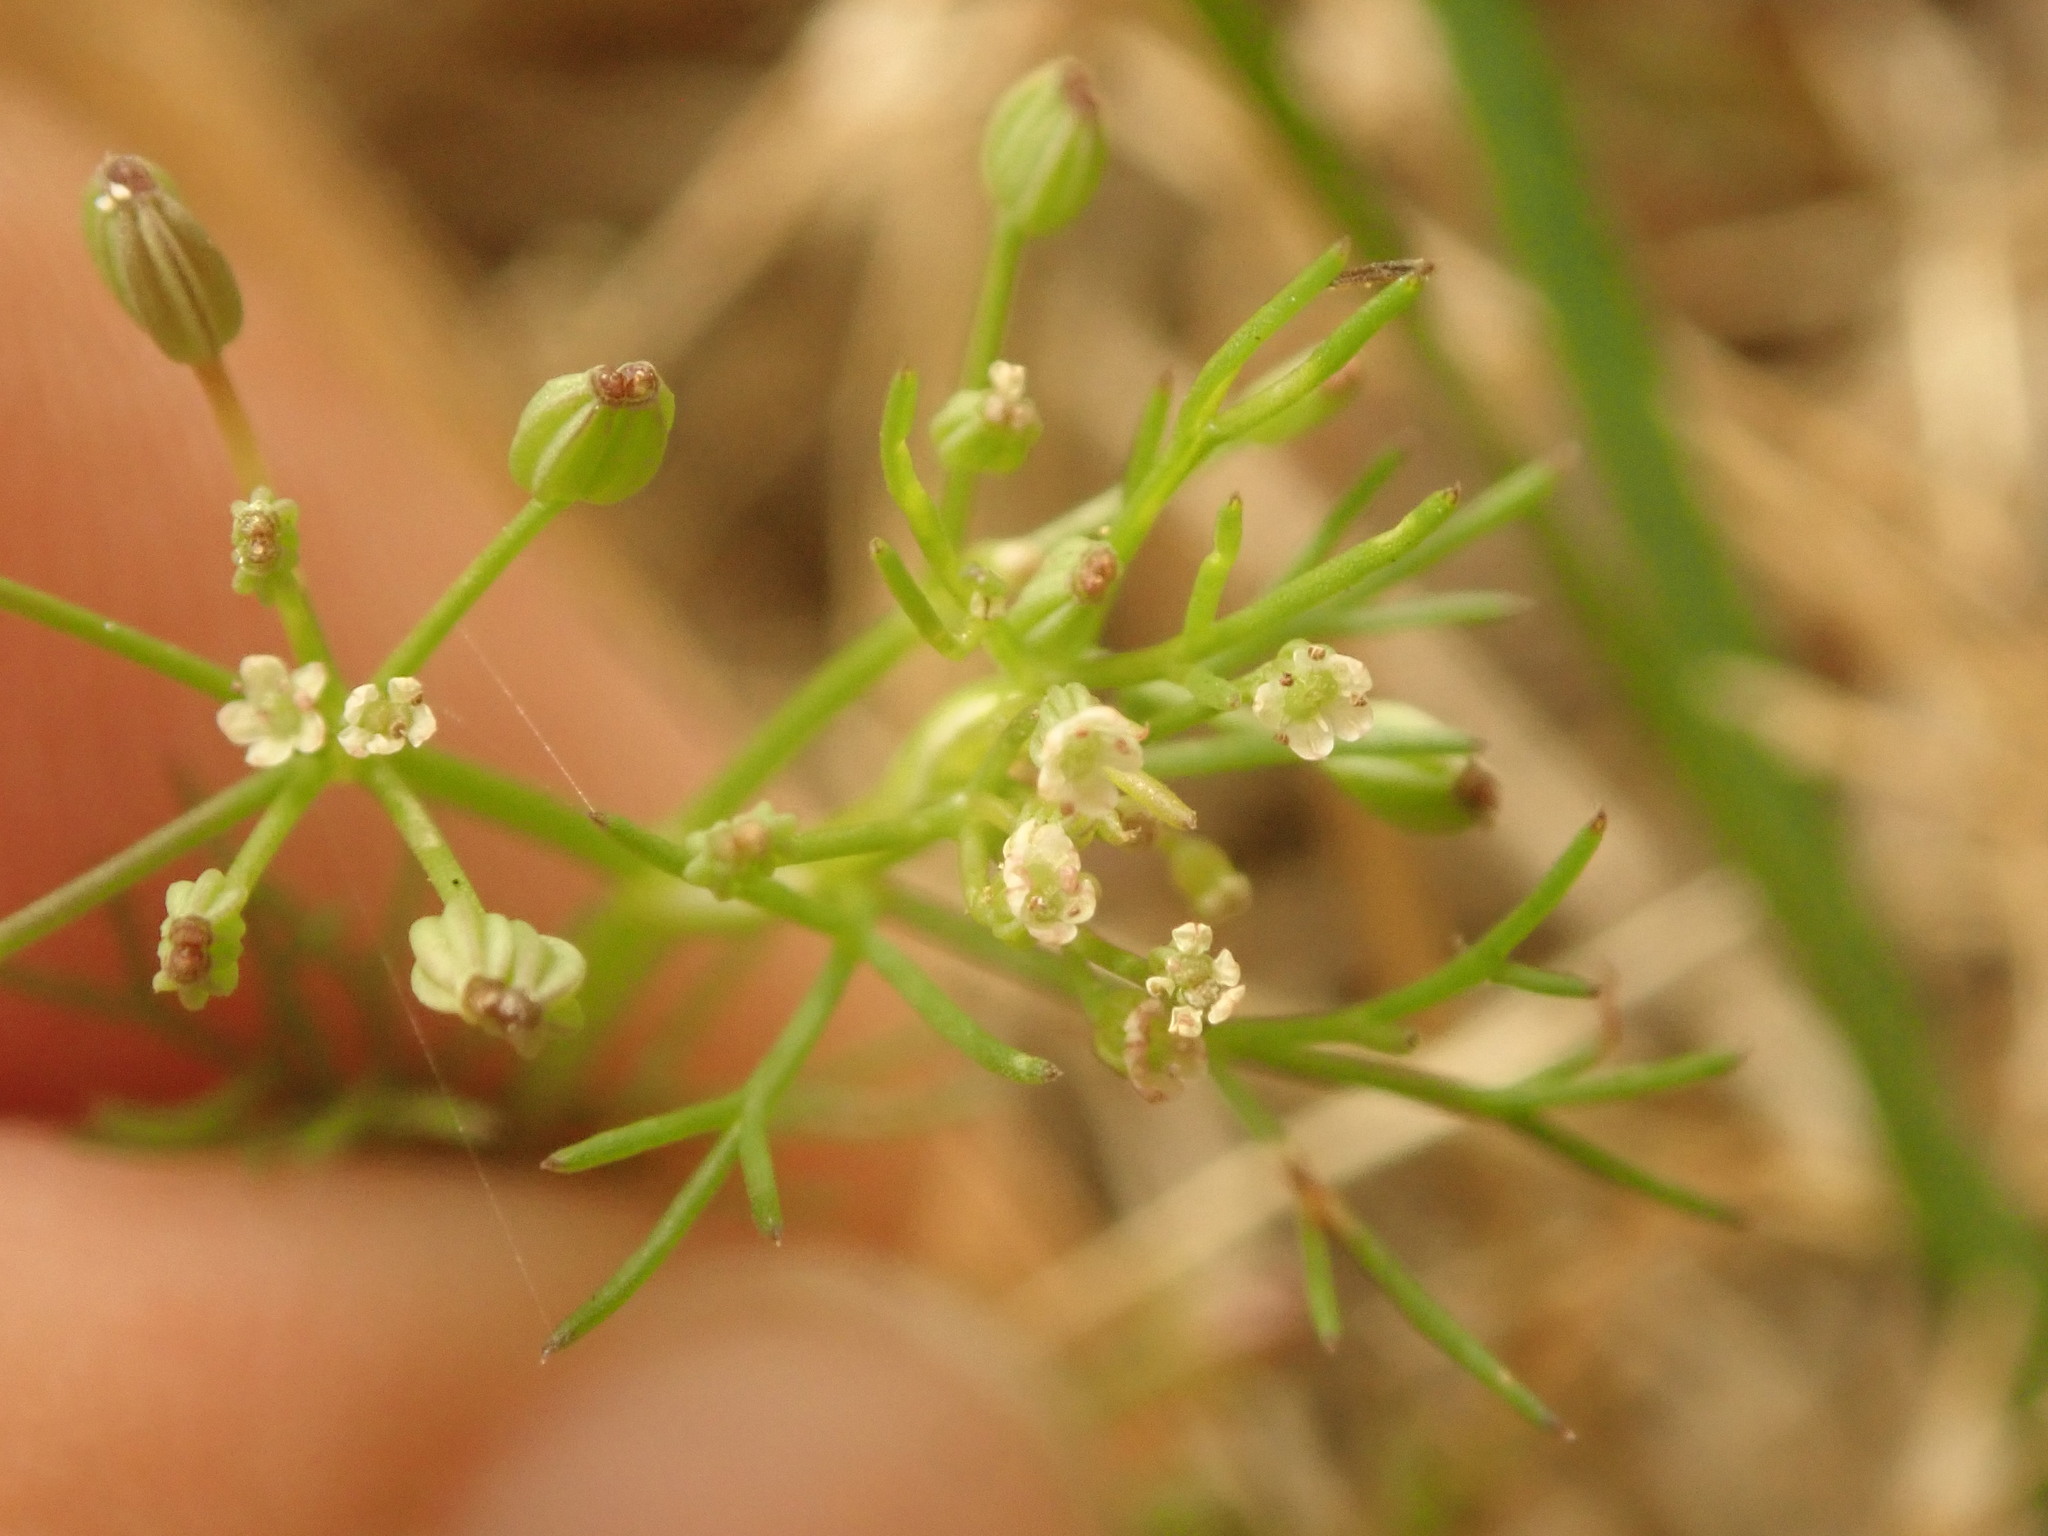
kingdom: Plantae
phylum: Tracheophyta
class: Magnoliopsida
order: Apiales
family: Apiaceae
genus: Cyclospermum
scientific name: Cyclospermum leptophyllum
